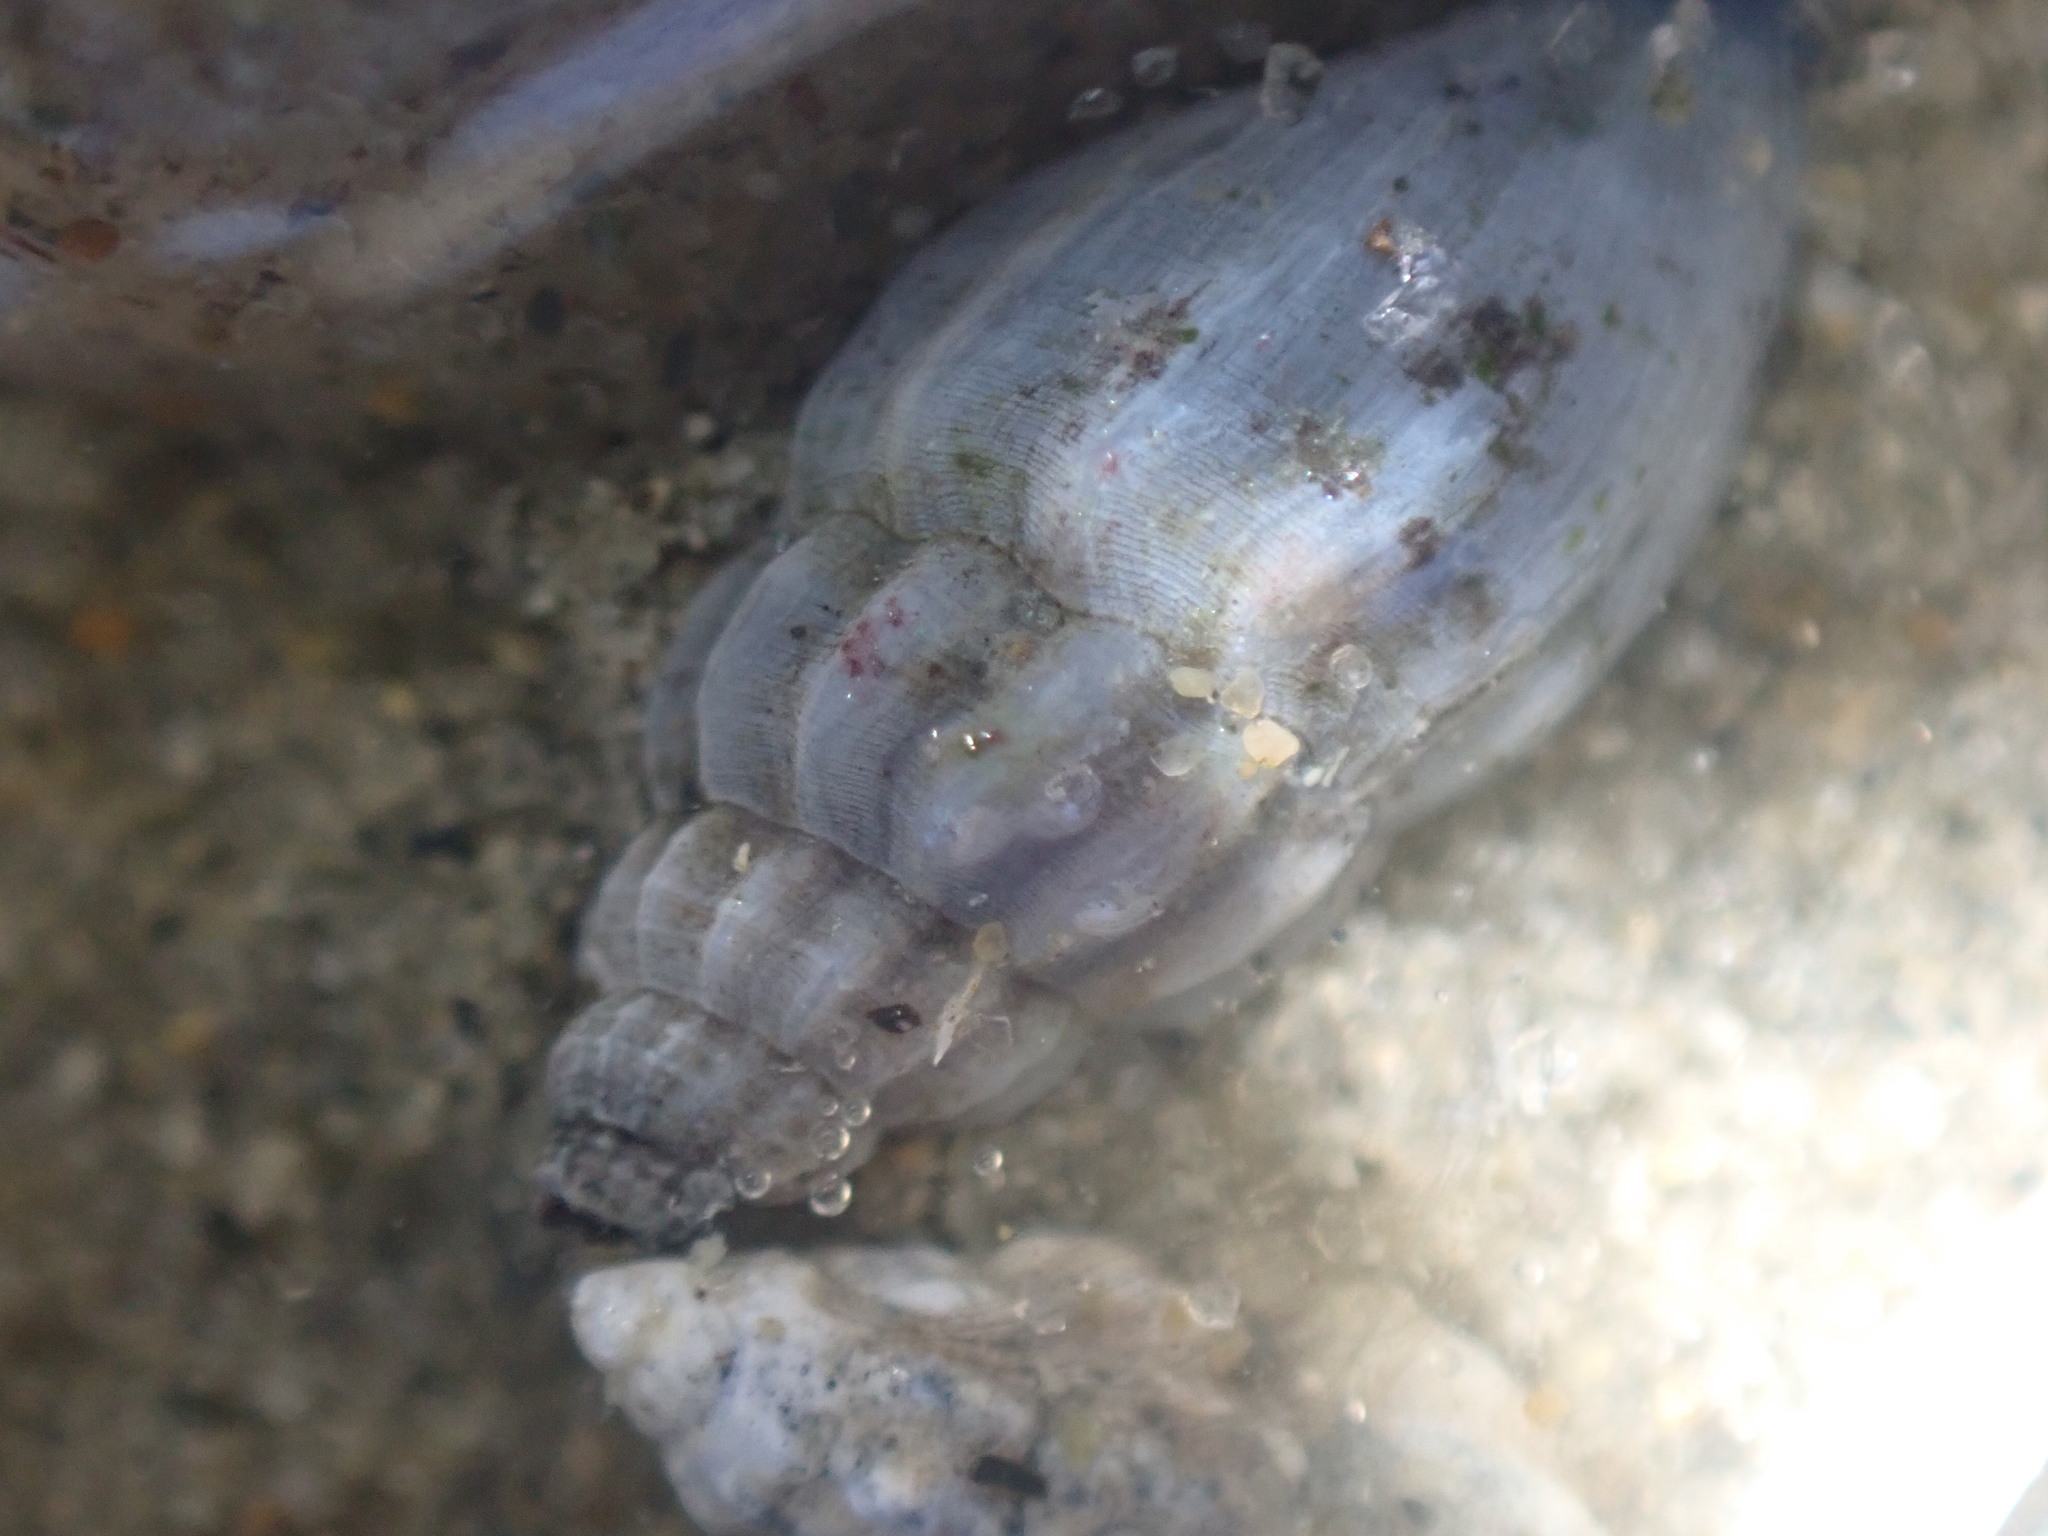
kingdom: Animalia
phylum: Mollusca
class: Gastropoda
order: Neogastropoda
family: Mangeliidae
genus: Neoguraleus
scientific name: Neoguraleus lyallensis
